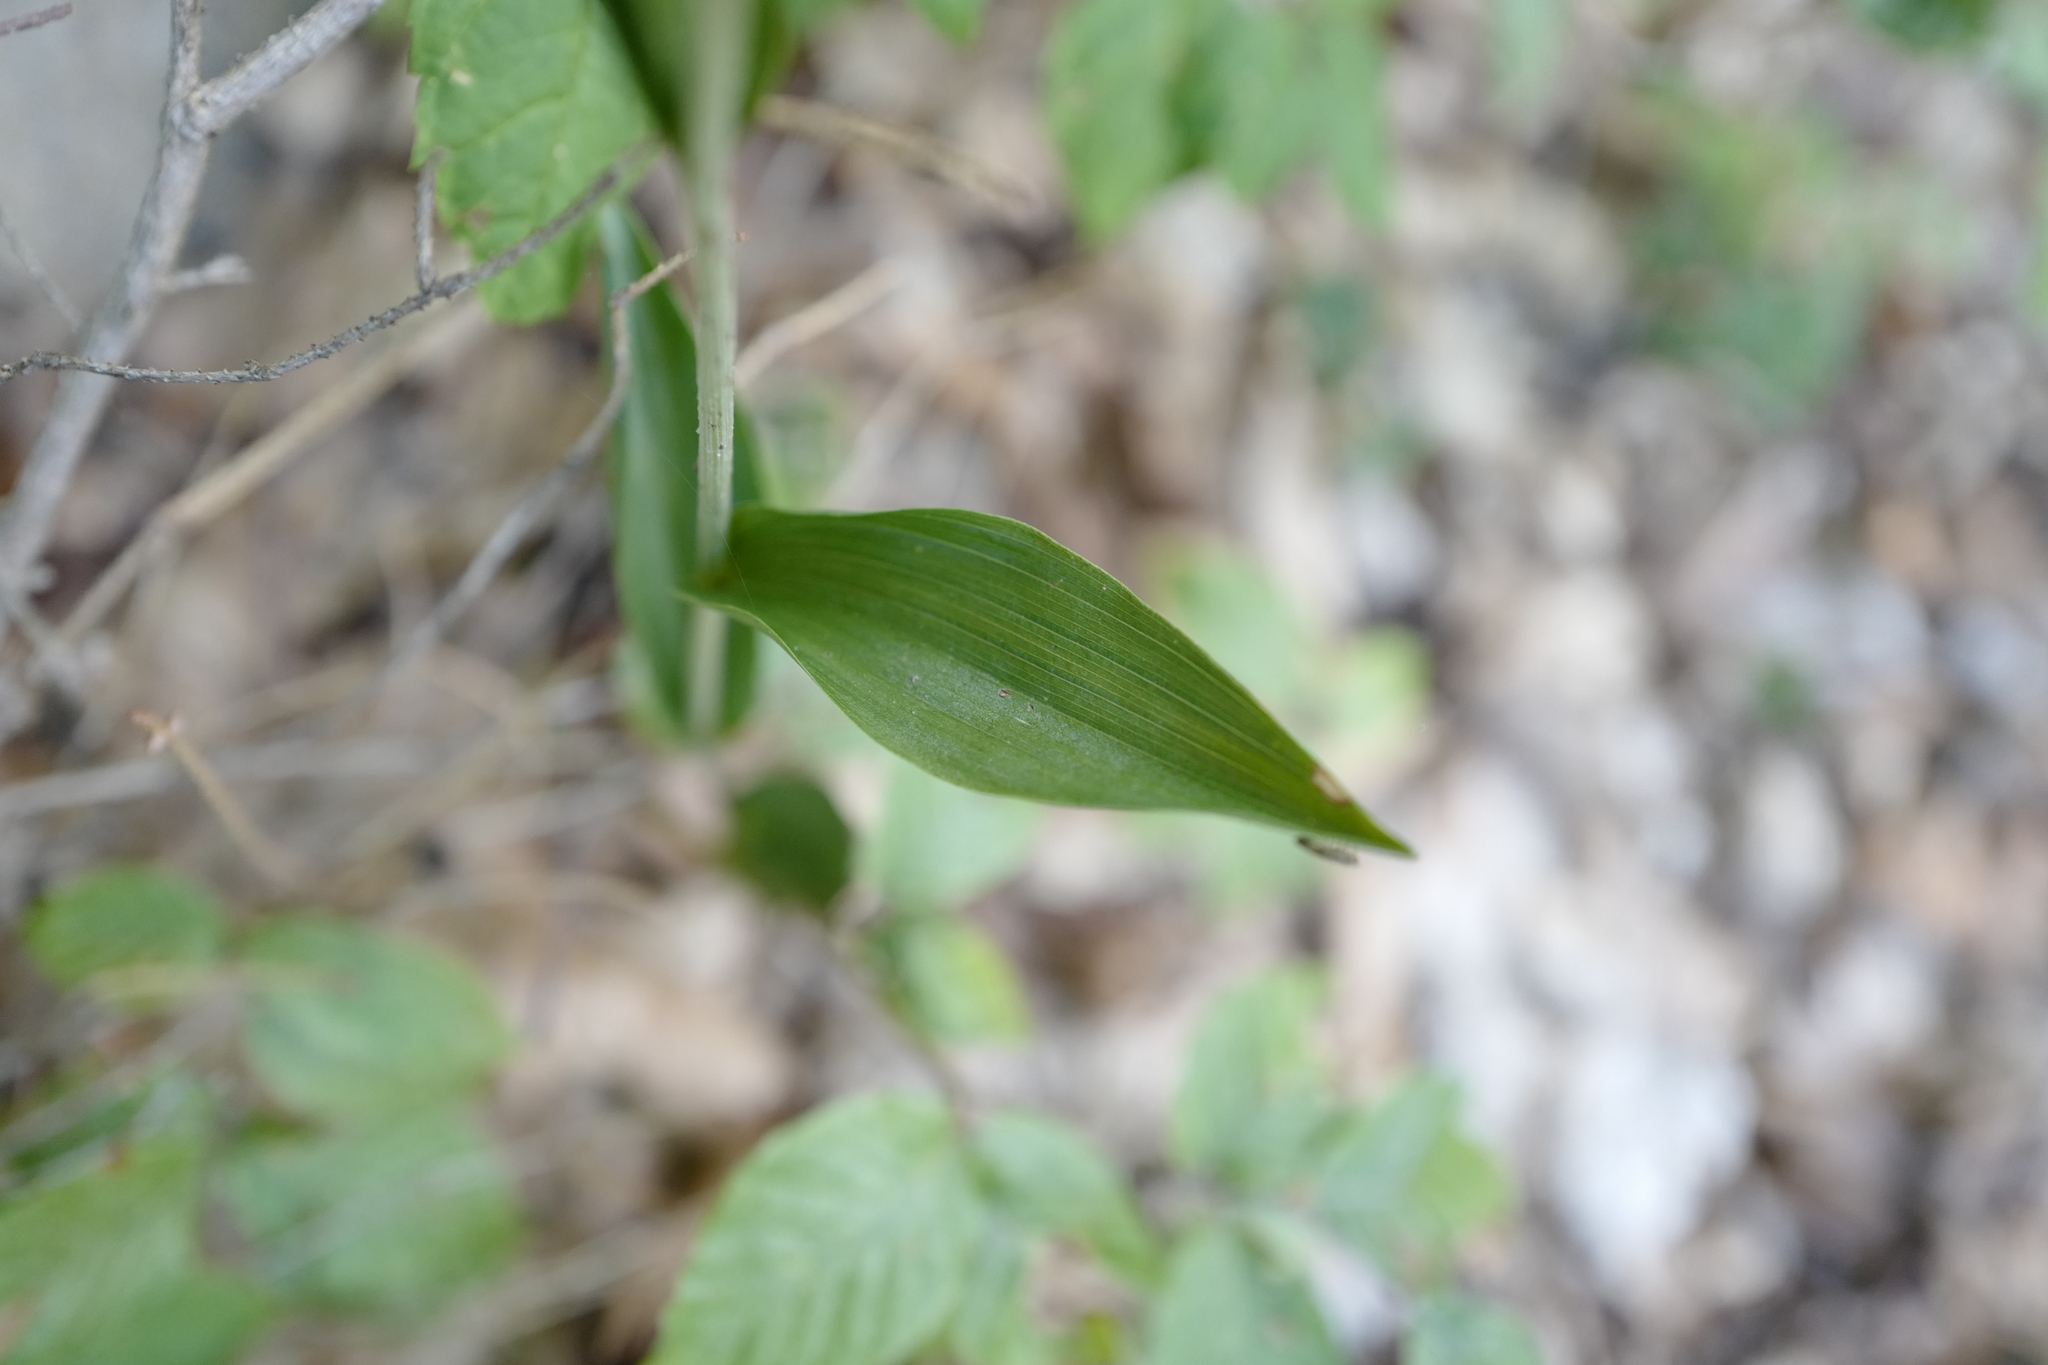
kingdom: Plantae
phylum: Tracheophyta
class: Liliopsida
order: Asparagales
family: Orchidaceae
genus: Cephalanthera
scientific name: Cephalanthera rubra
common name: Red helleborine
